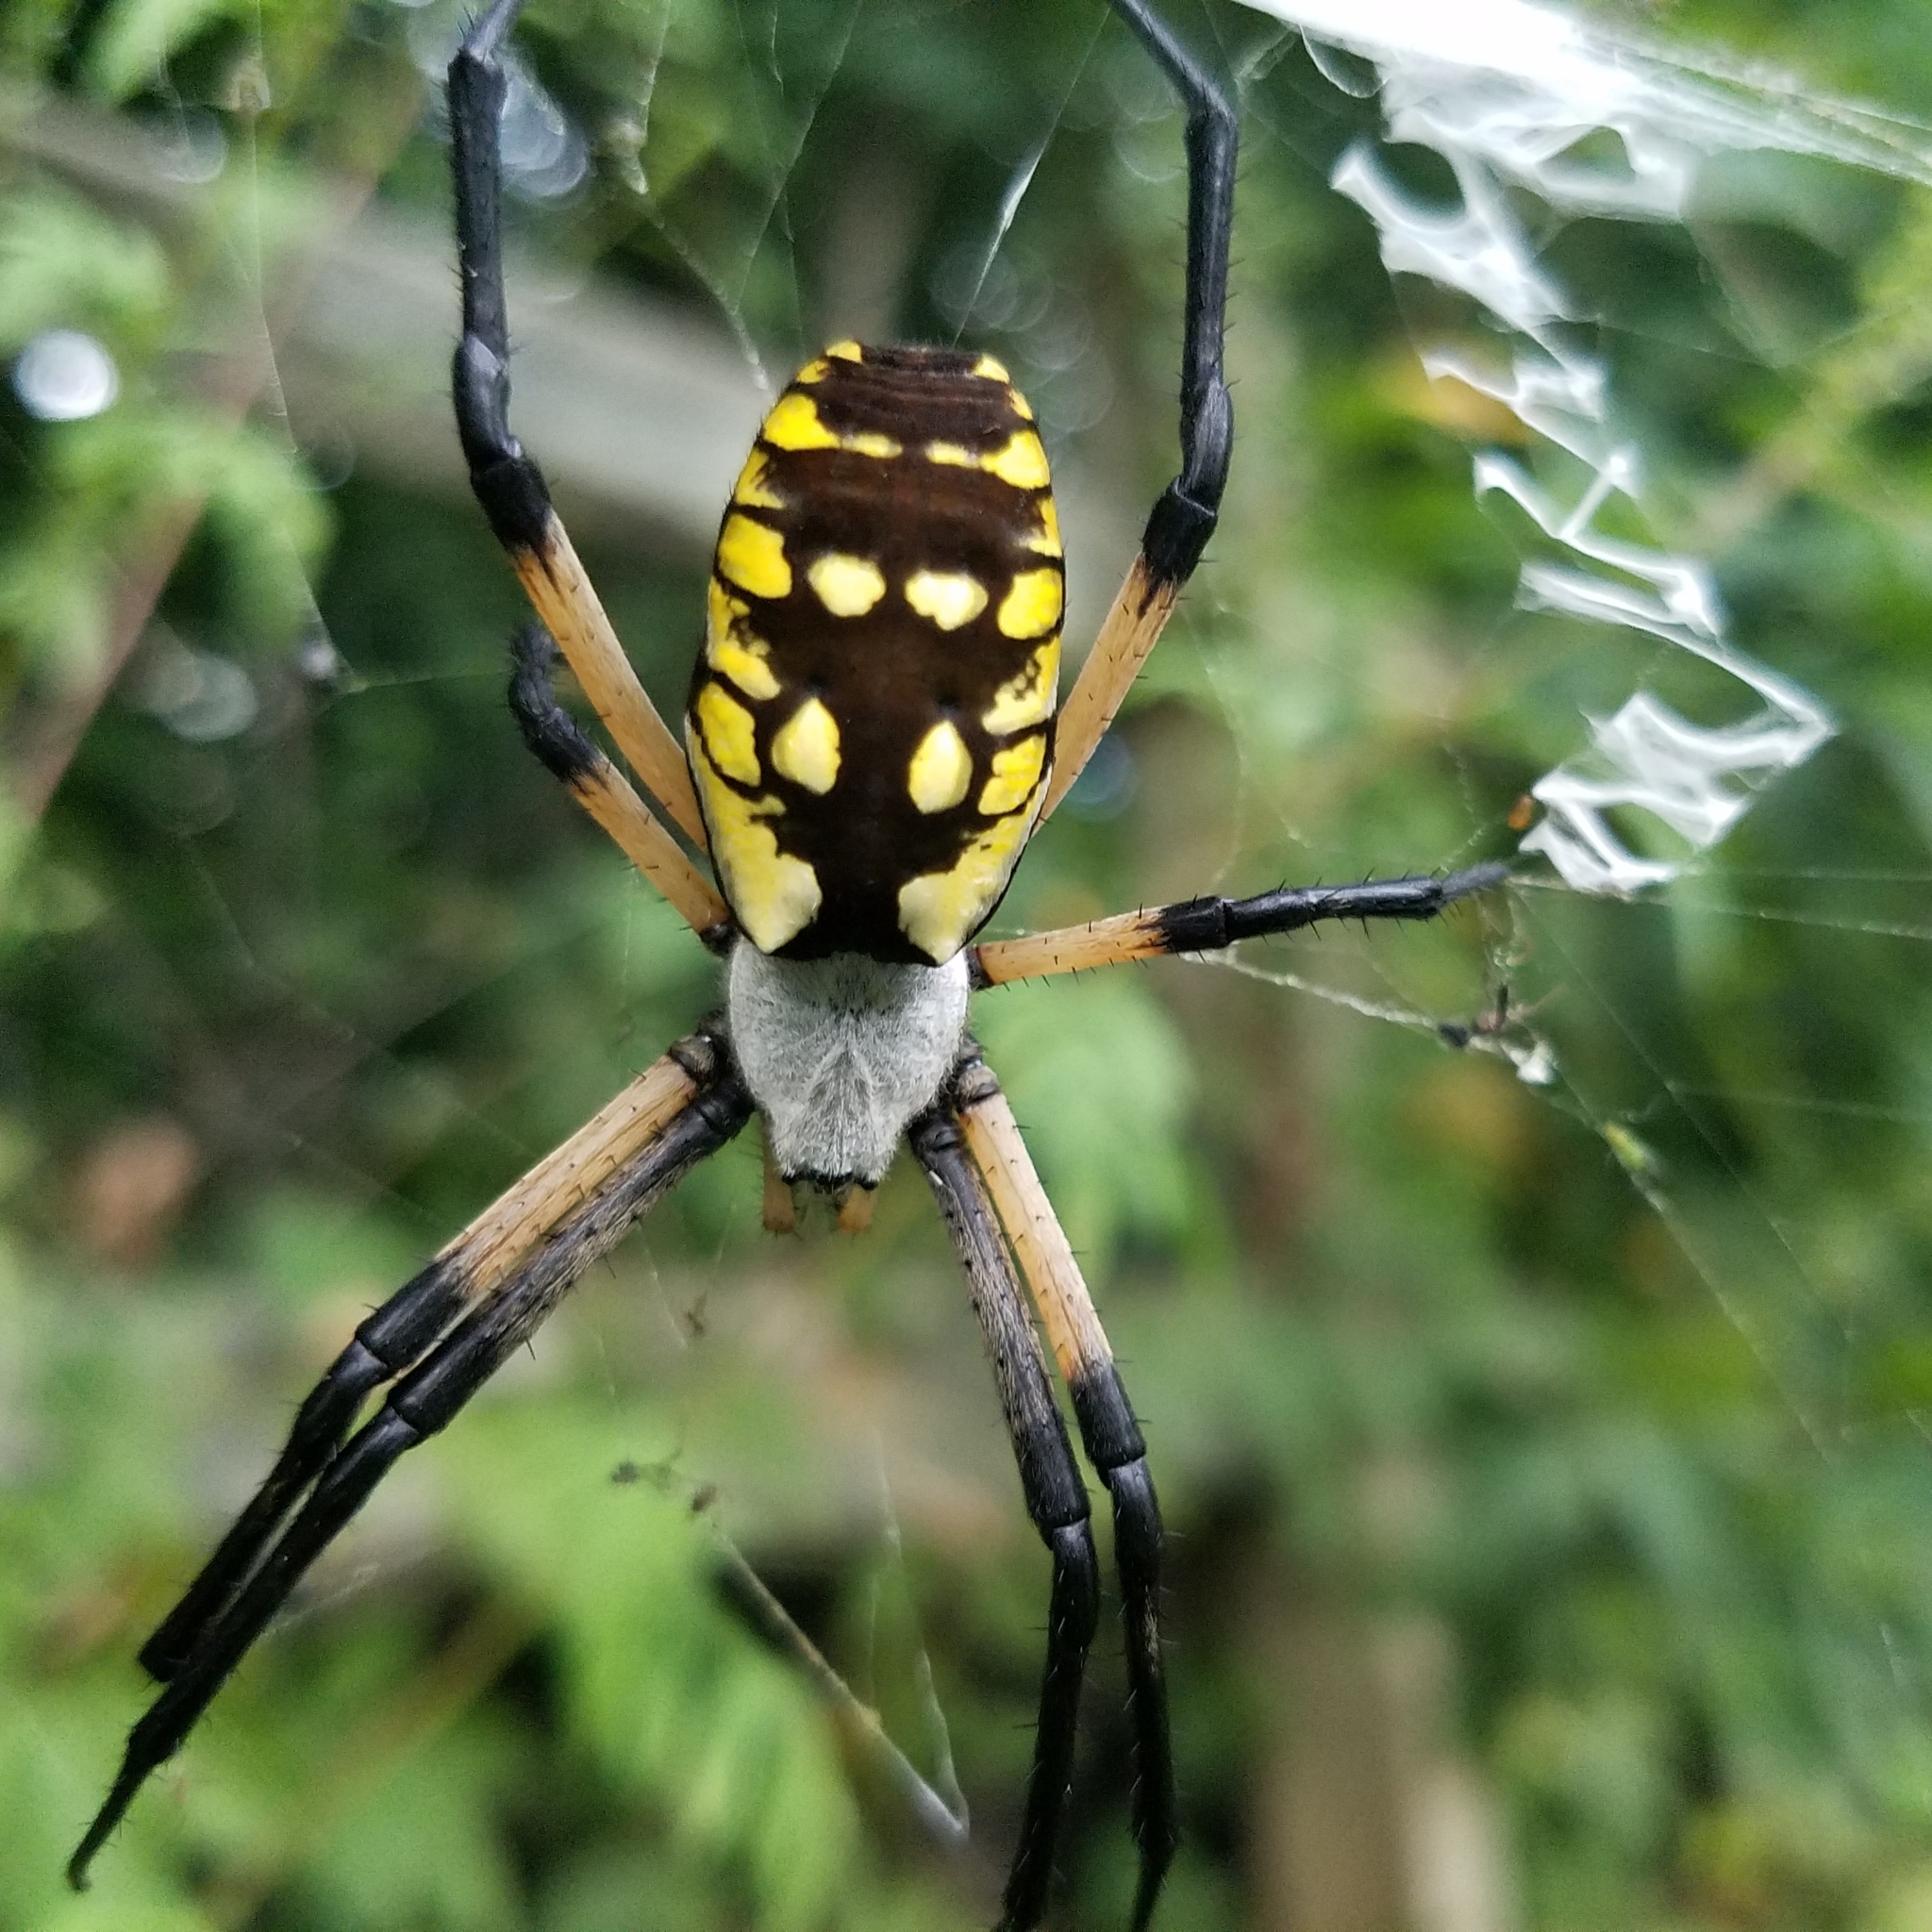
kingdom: Animalia
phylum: Arthropoda
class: Arachnida
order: Araneae
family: Araneidae
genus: Argiope
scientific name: Argiope aurantia
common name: Orb weavers
